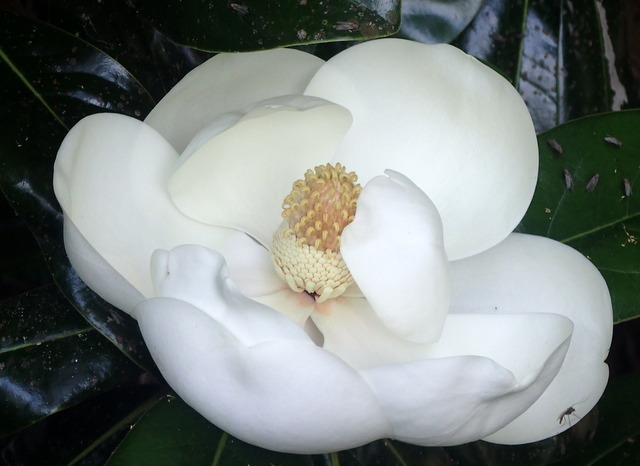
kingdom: Plantae
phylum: Tracheophyta
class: Magnoliopsida
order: Magnoliales
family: Magnoliaceae
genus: Magnolia
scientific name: Magnolia grandiflora
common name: Southern magnolia
